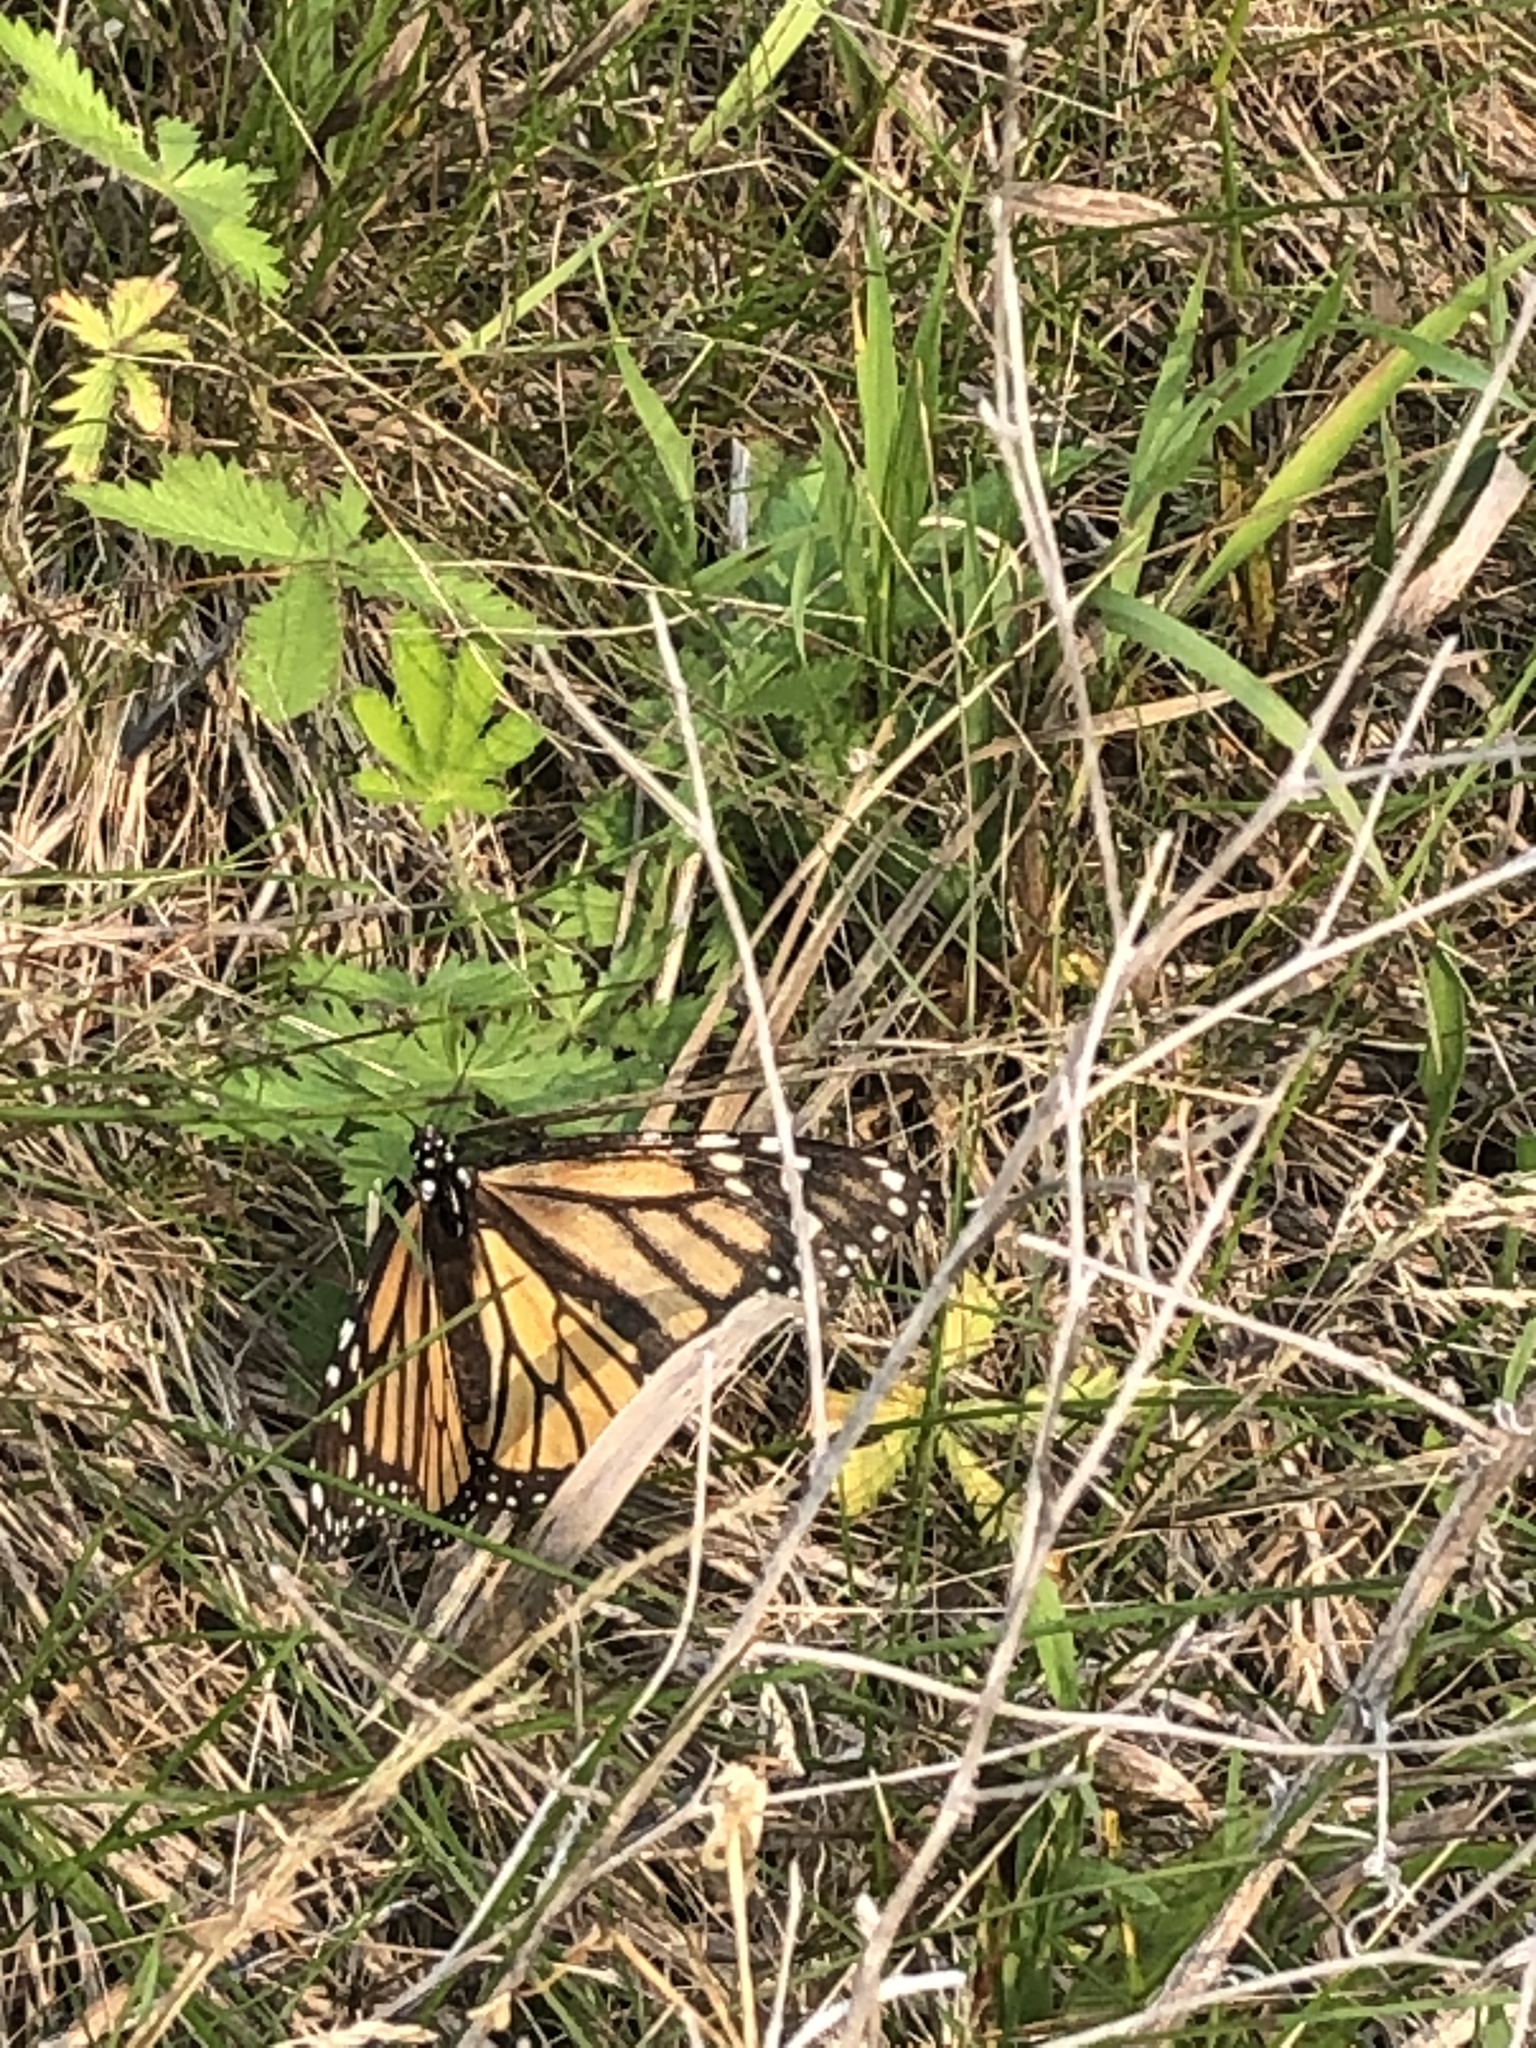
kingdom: Animalia
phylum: Arthropoda
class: Insecta
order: Lepidoptera
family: Nymphalidae
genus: Danaus
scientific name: Danaus plexippus
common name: Monarch
